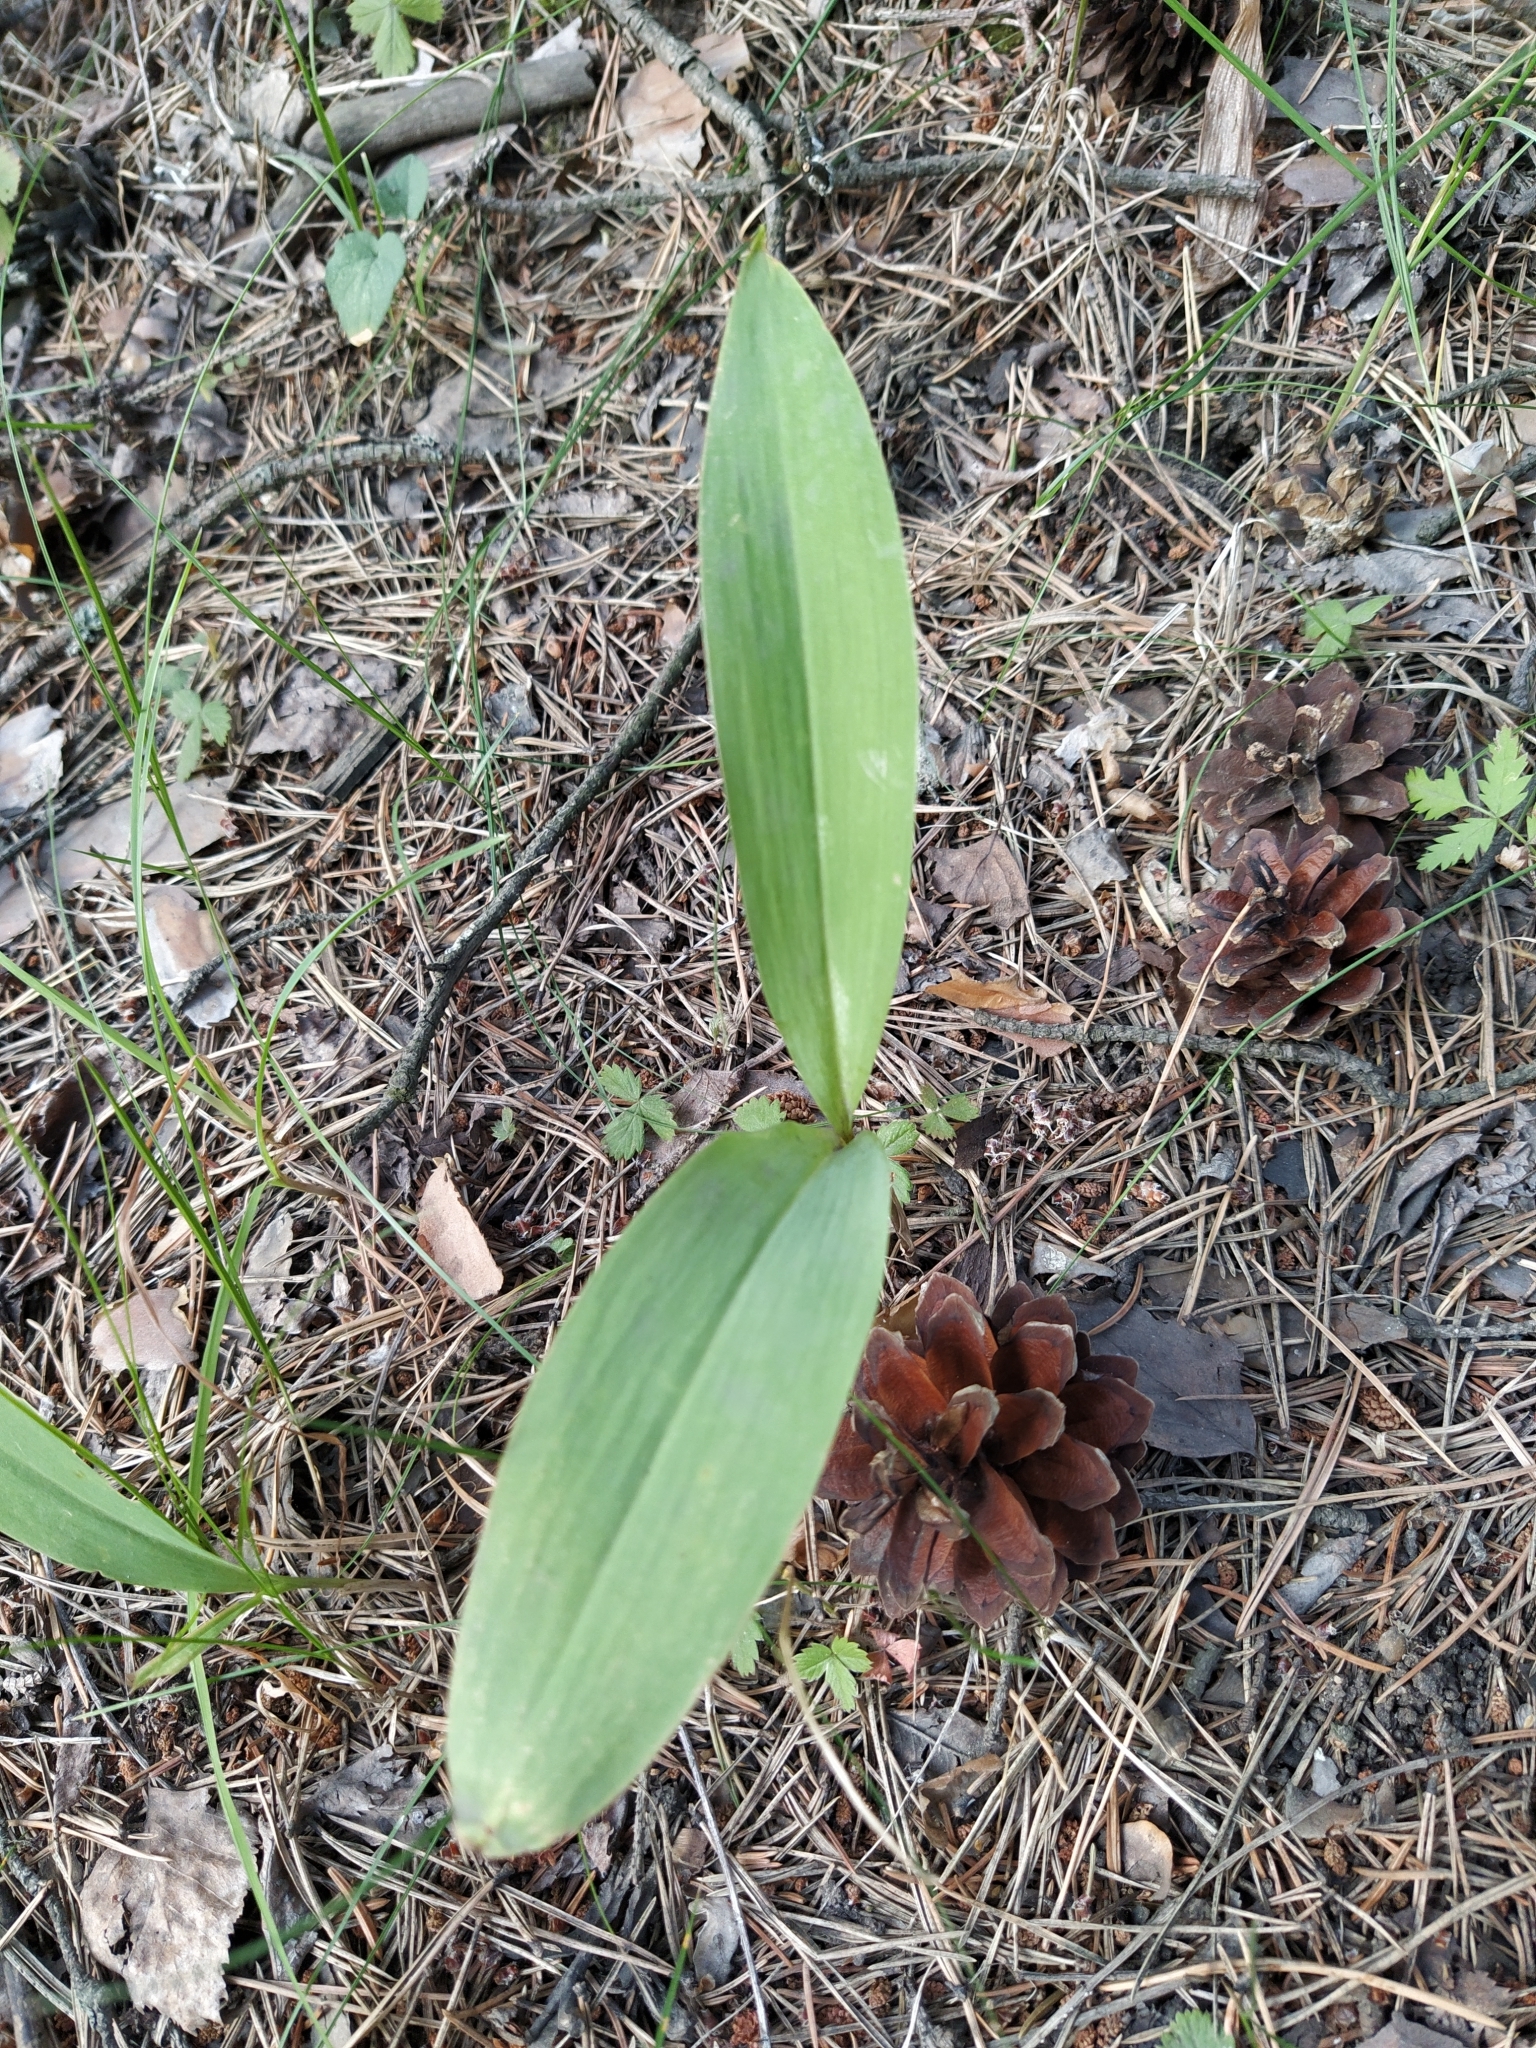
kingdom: Plantae
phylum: Tracheophyta
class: Liliopsida
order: Asparagales
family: Asparagaceae
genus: Convallaria
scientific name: Convallaria majalis
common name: Lily-of-the-valley
